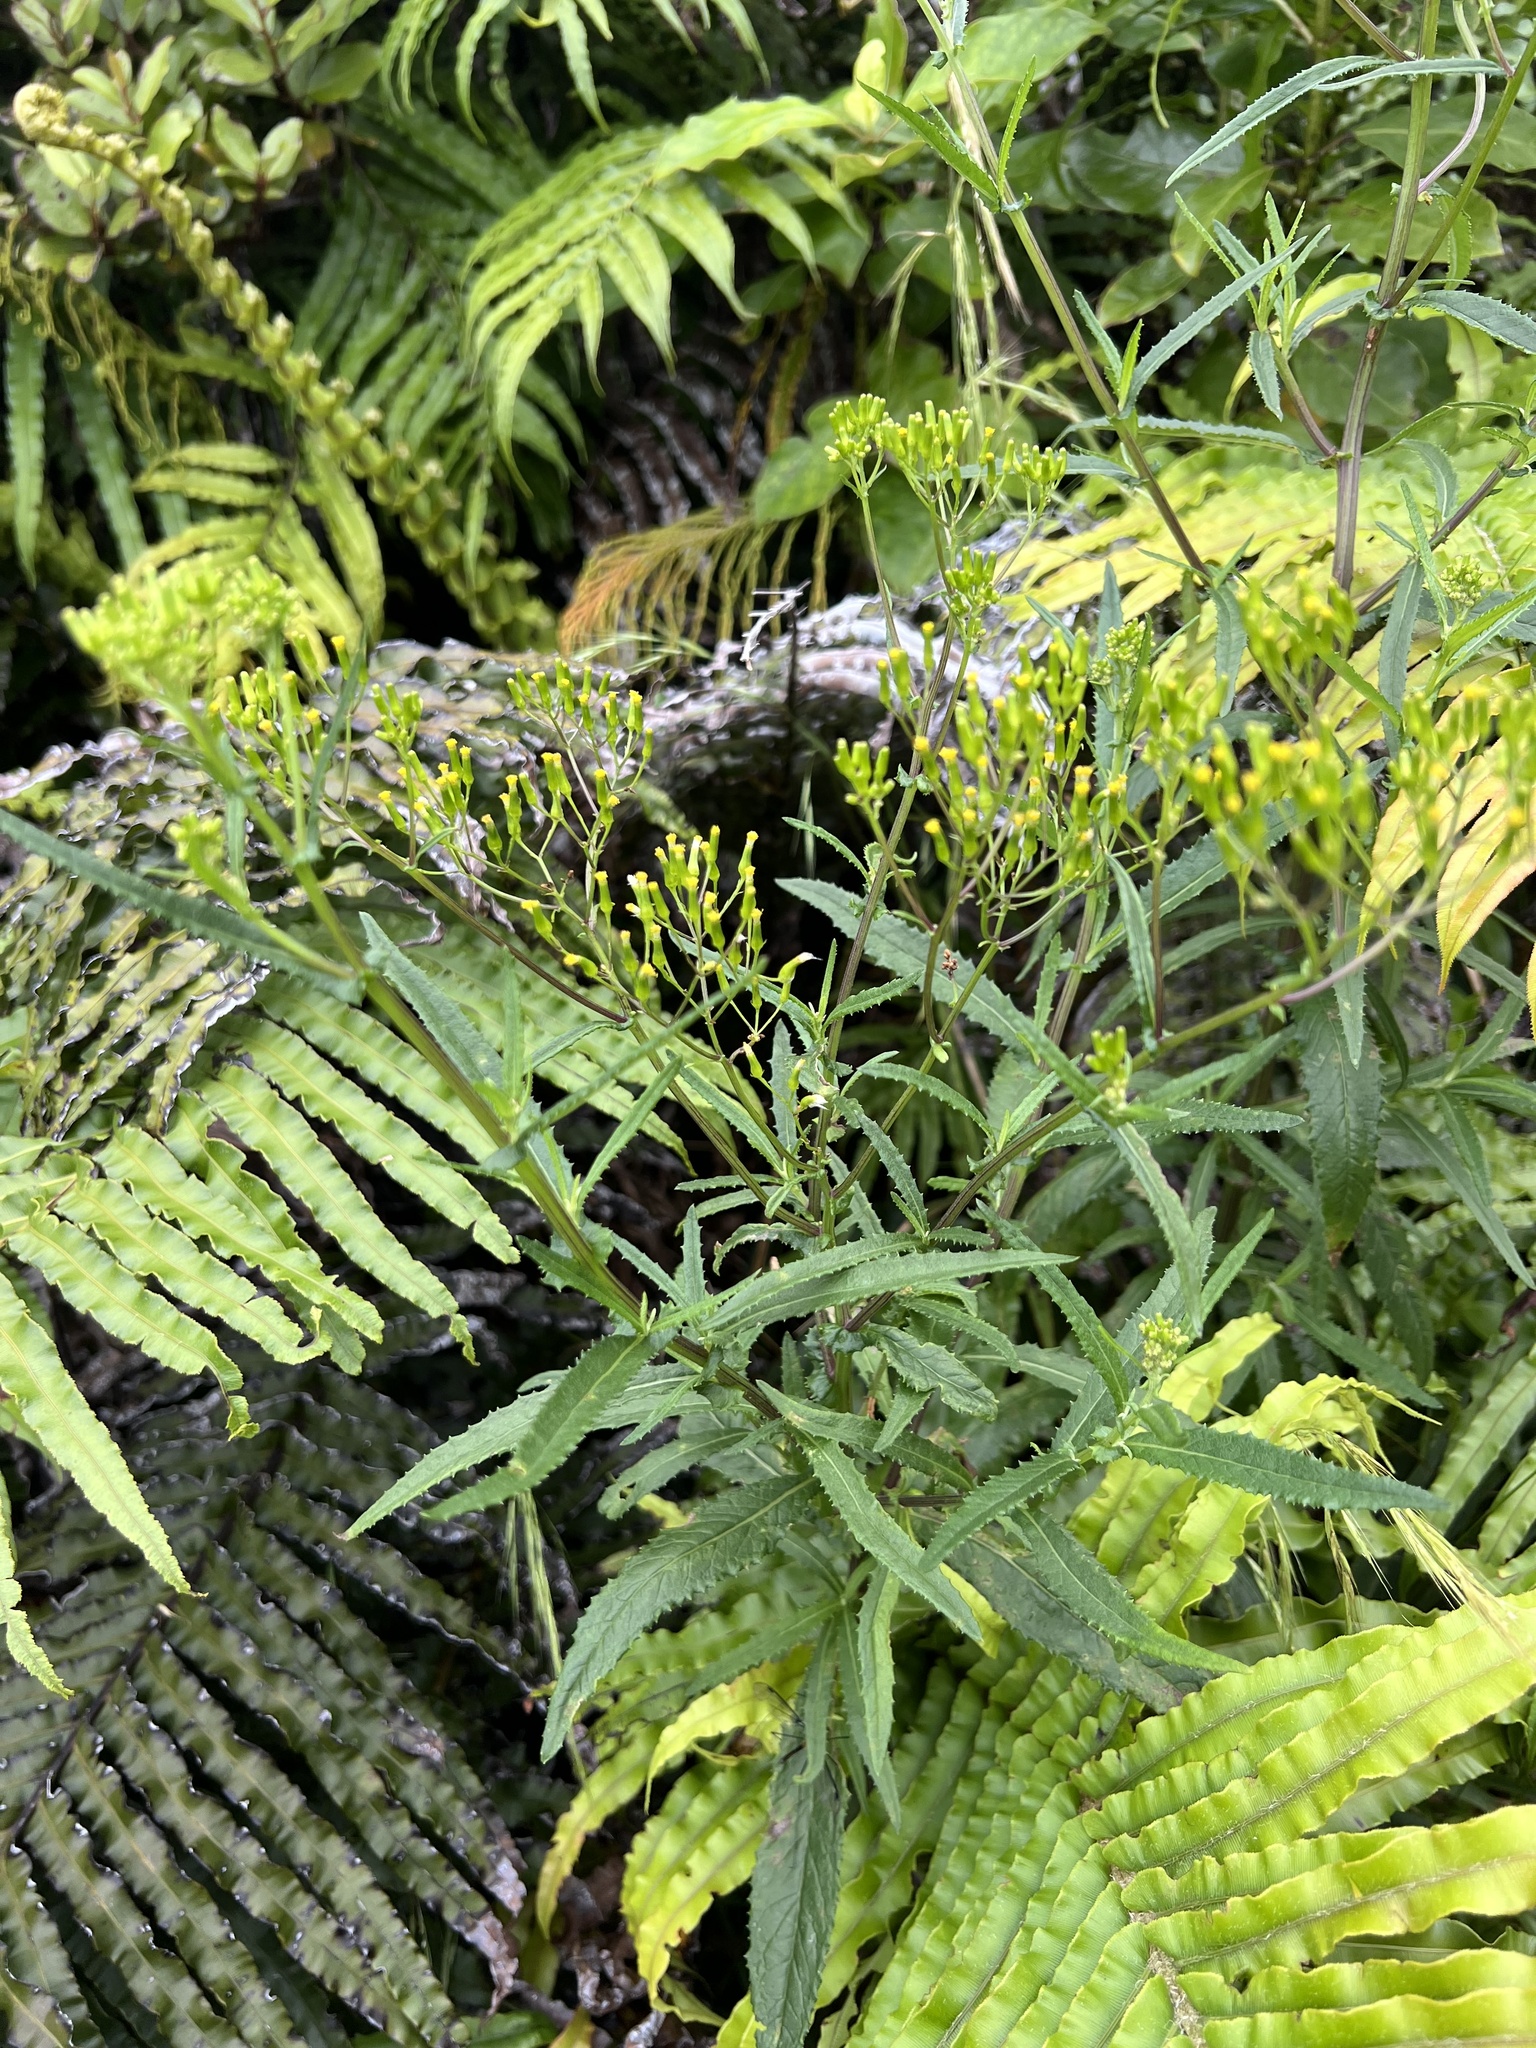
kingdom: Plantae
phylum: Tracheophyta
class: Magnoliopsida
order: Asterales
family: Asteraceae
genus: Senecio
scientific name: Senecio minimus
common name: Toothed fireweed
